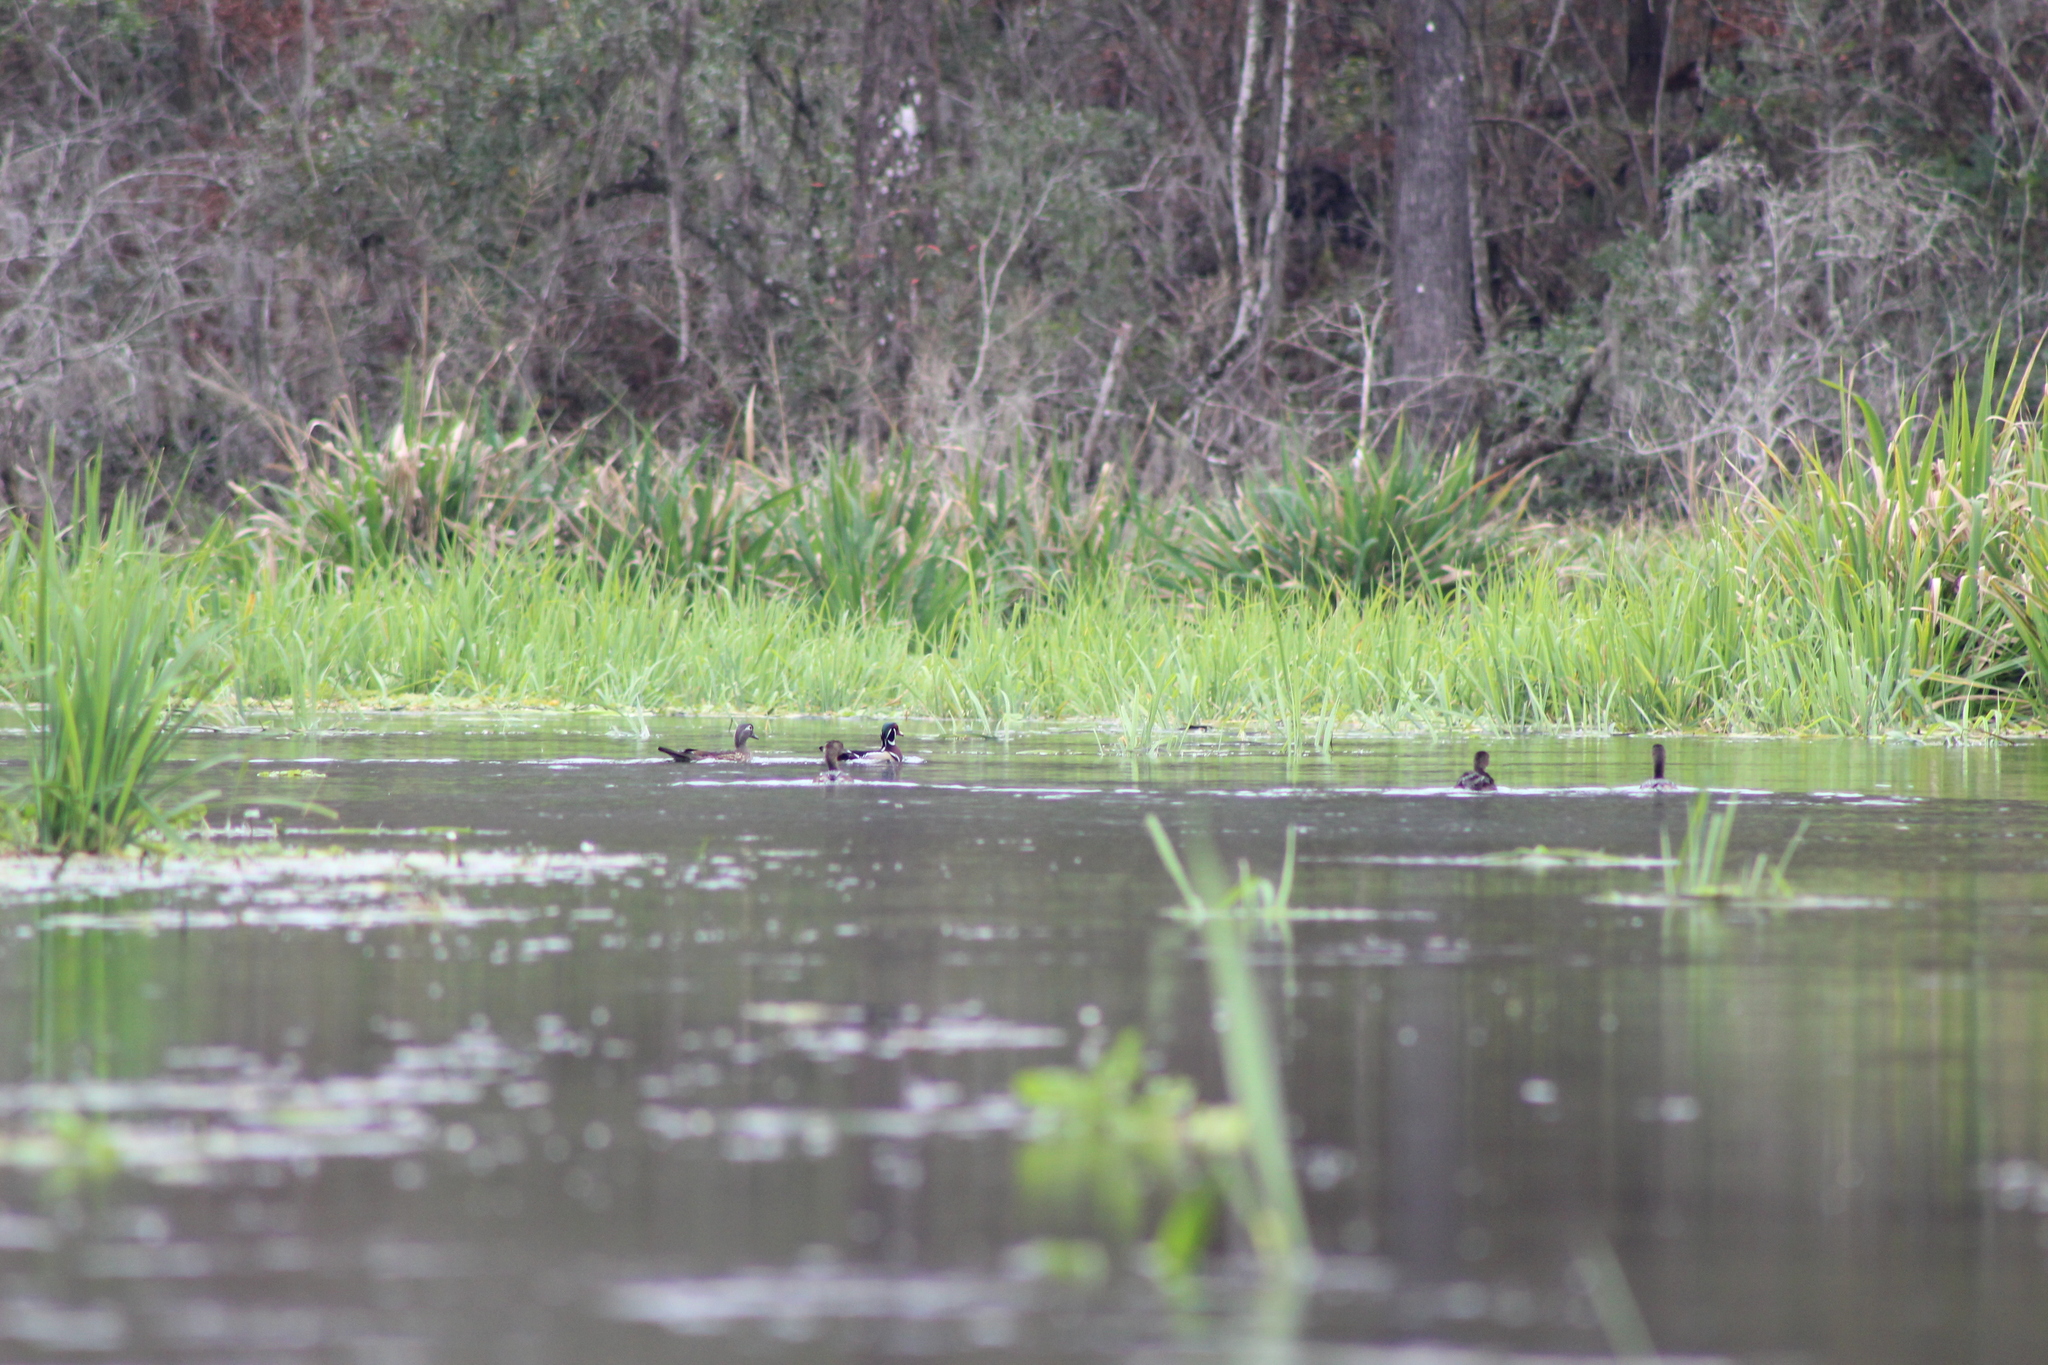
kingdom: Animalia
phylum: Chordata
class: Aves
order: Anseriformes
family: Anatidae
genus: Aix
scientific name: Aix sponsa
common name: Wood duck
